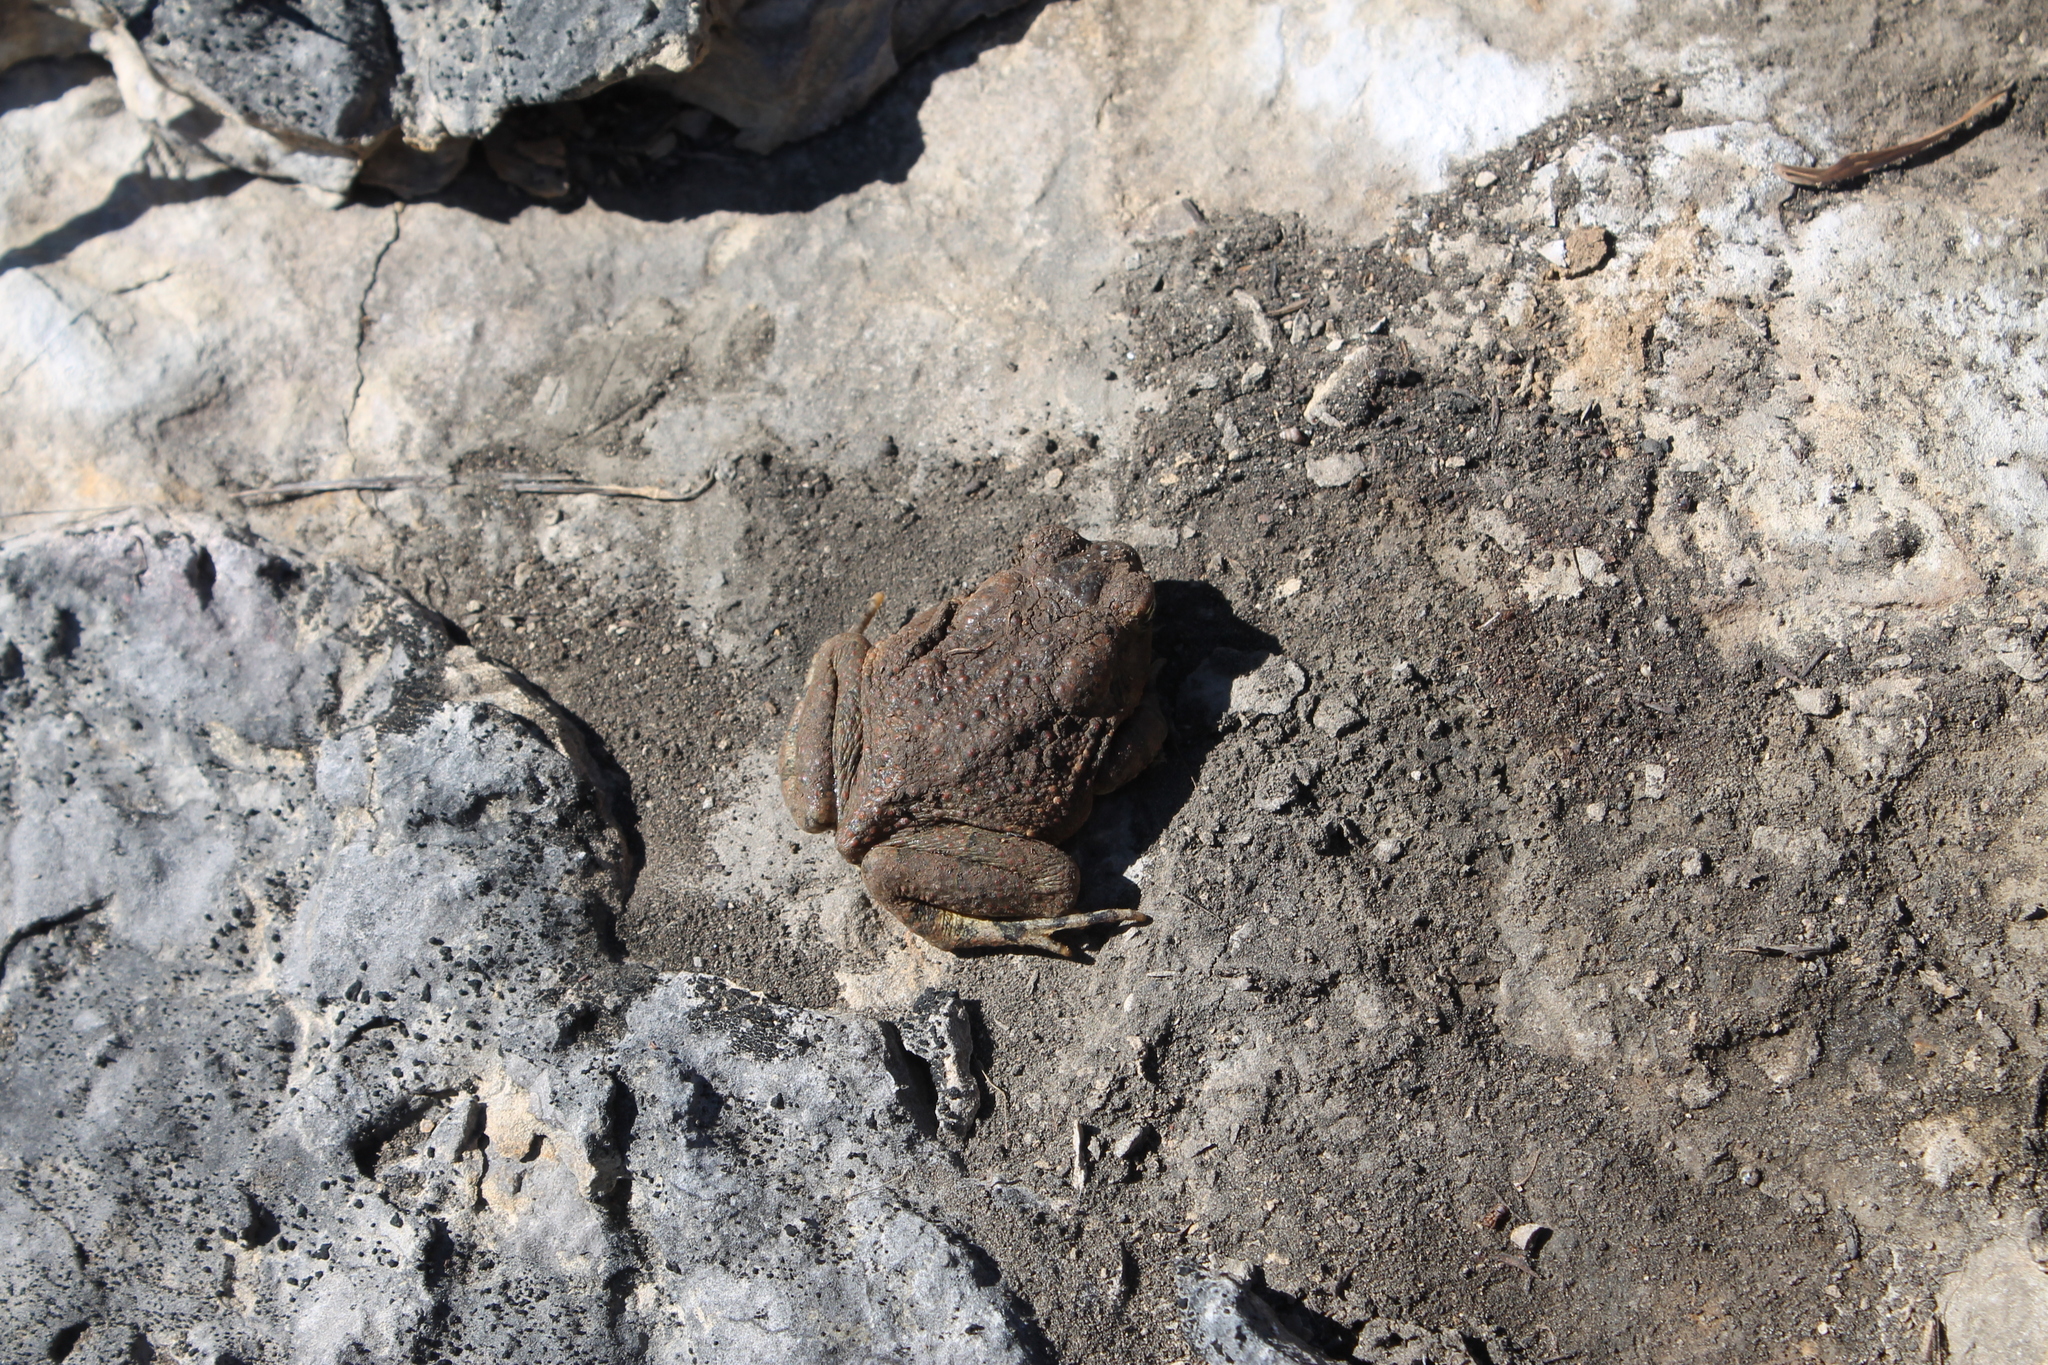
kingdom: Animalia
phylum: Chordata
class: Amphibia
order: Anura
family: Bufonidae
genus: Anaxyrus
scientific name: Anaxyrus fowleri
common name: Fowler's toad
